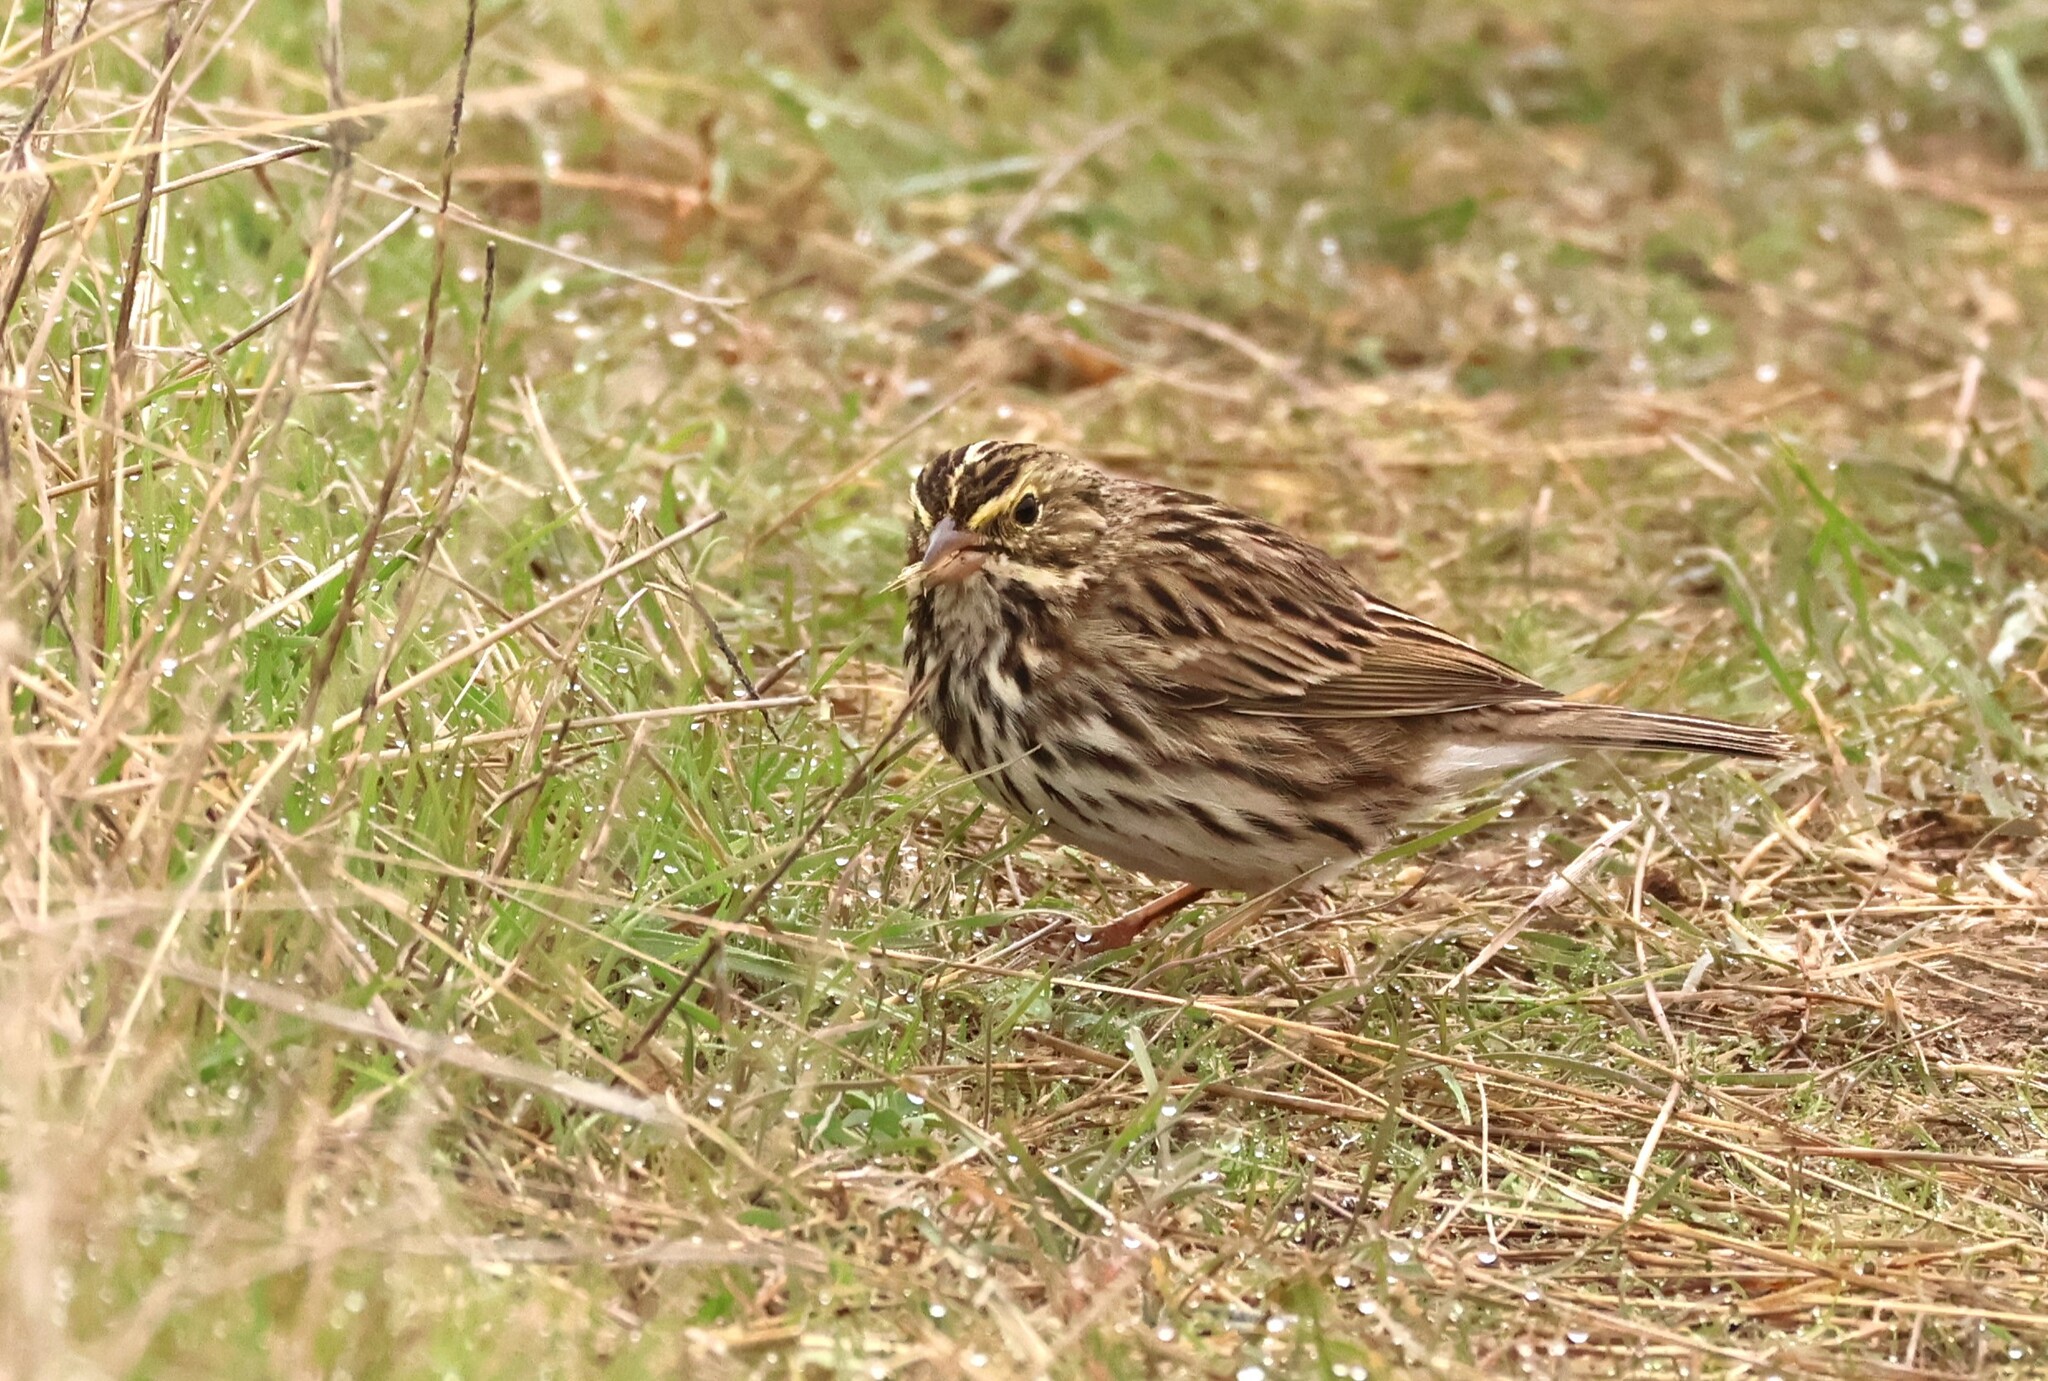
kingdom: Animalia
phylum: Chordata
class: Aves
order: Passeriformes
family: Passerellidae
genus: Passerculus
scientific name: Passerculus sandwichensis
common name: Savannah sparrow
